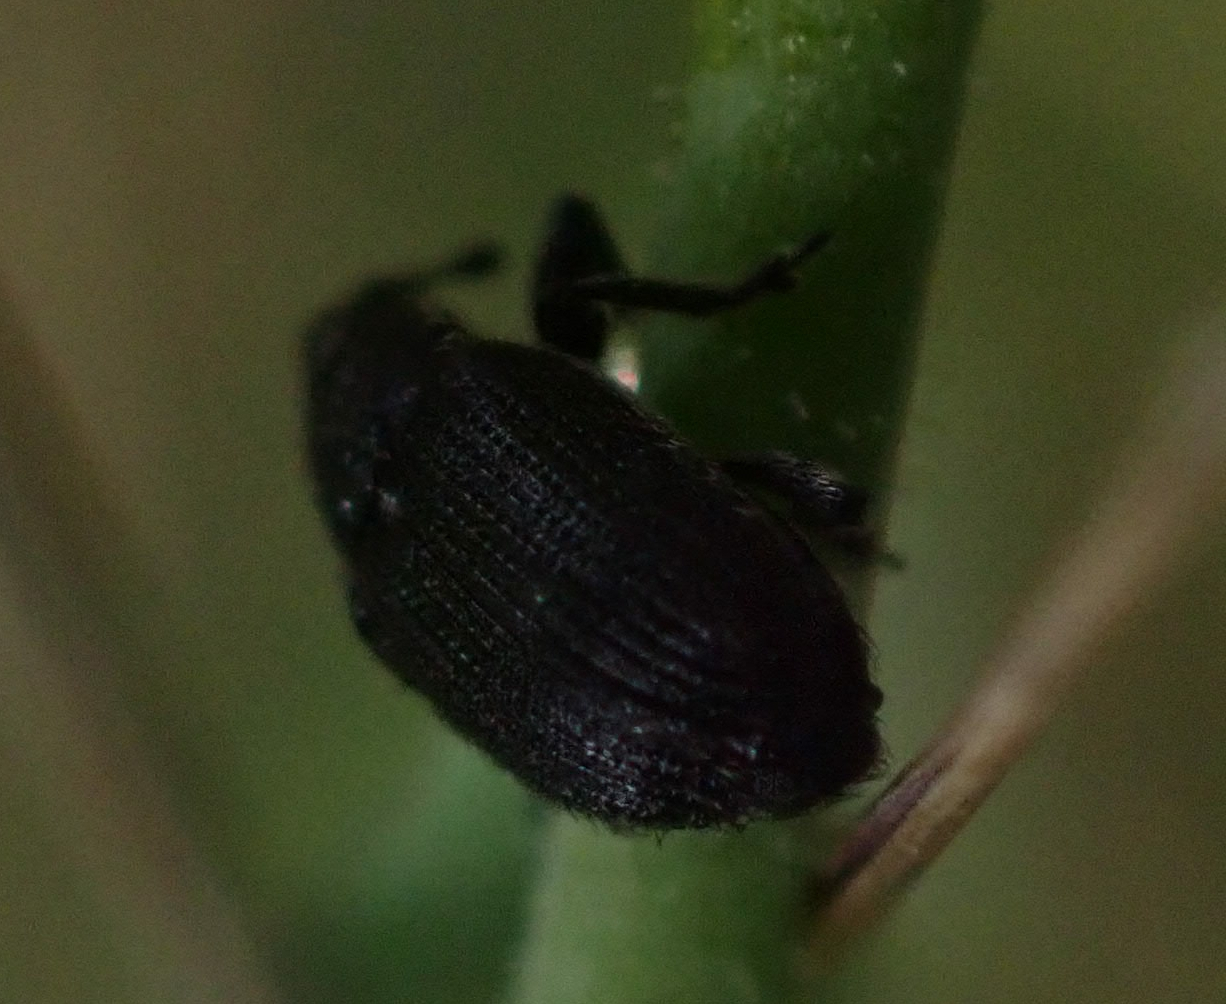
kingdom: Animalia
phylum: Arthropoda
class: Insecta
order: Coleoptera
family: Curculionidae
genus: Rhinusa
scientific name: Rhinusa antirrhini
